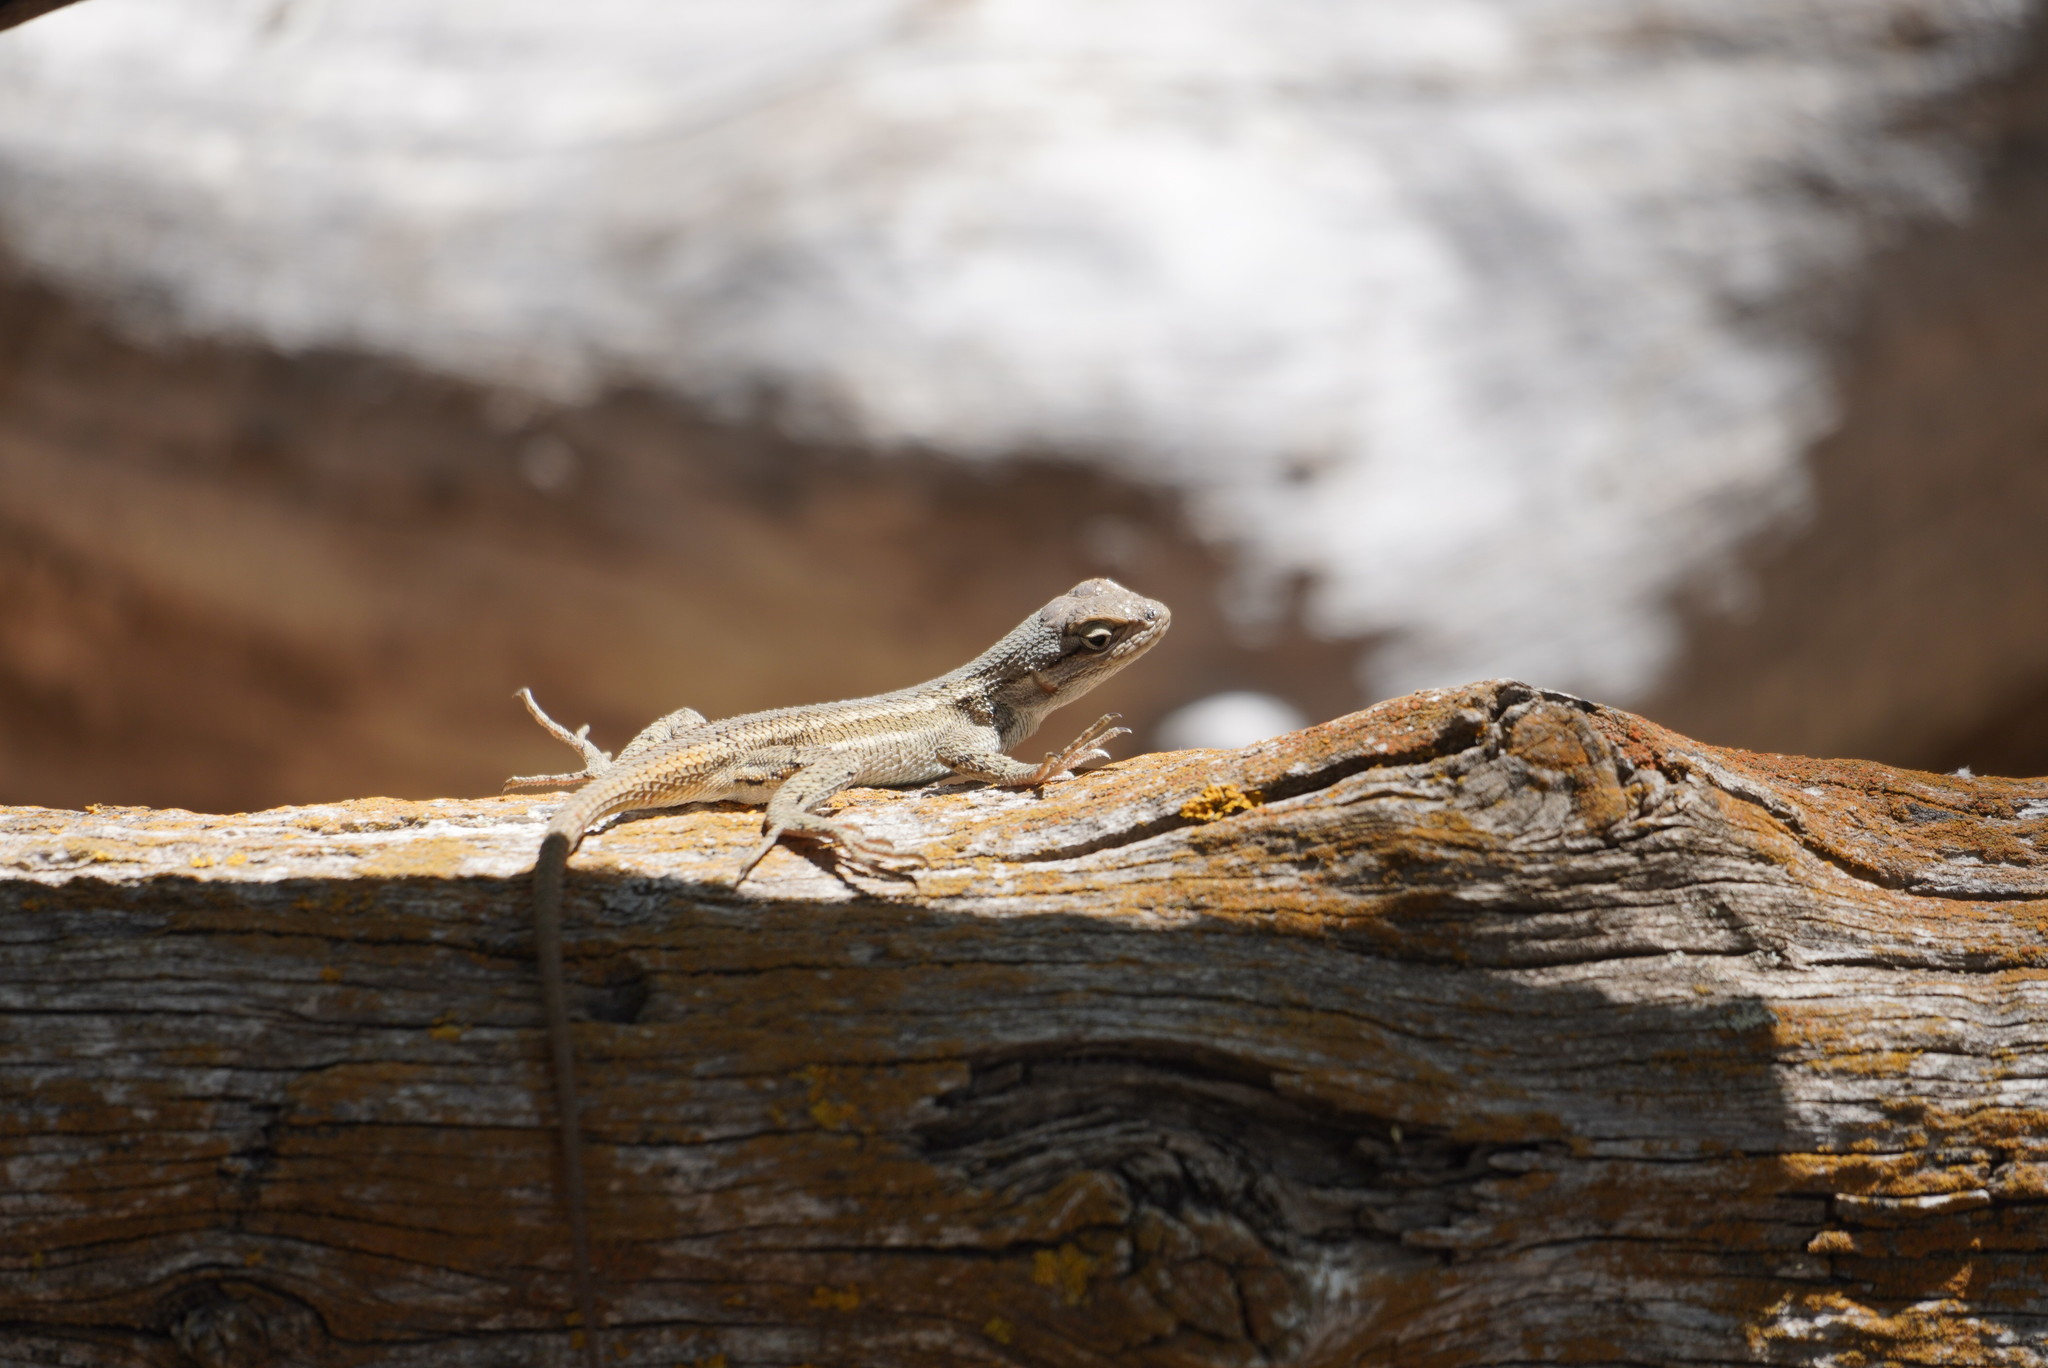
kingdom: Animalia
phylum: Chordata
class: Squamata
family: Phrynosomatidae
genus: Sceloporus
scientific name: Sceloporus tristichus
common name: Plateau fence lizard
